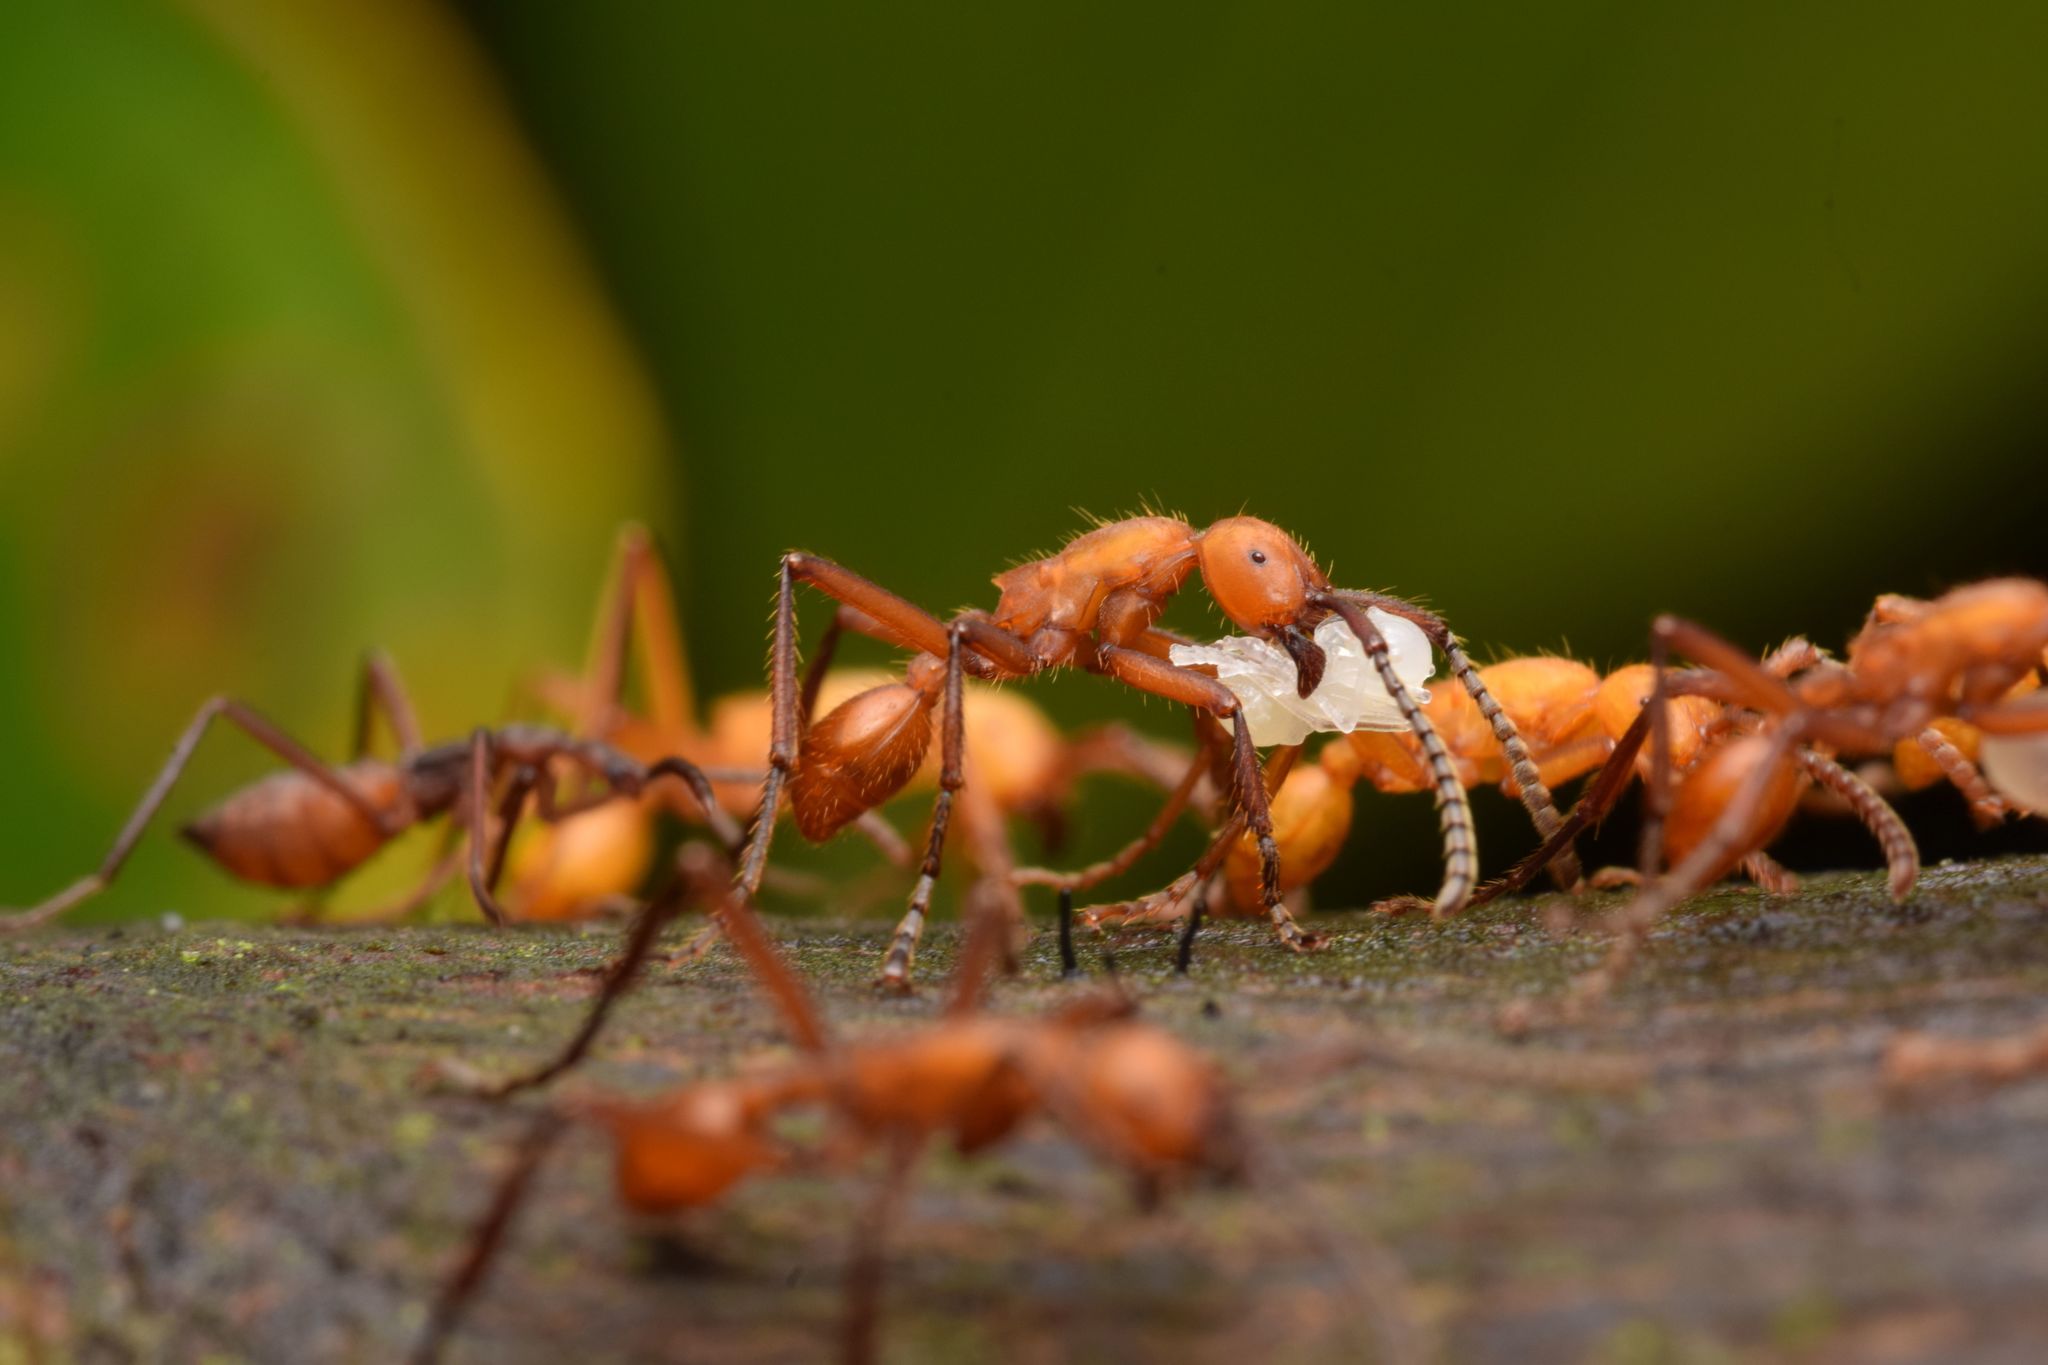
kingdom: Animalia
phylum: Arthropoda
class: Insecta
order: Hymenoptera
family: Formicidae
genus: Eciton
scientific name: Eciton hamatum
